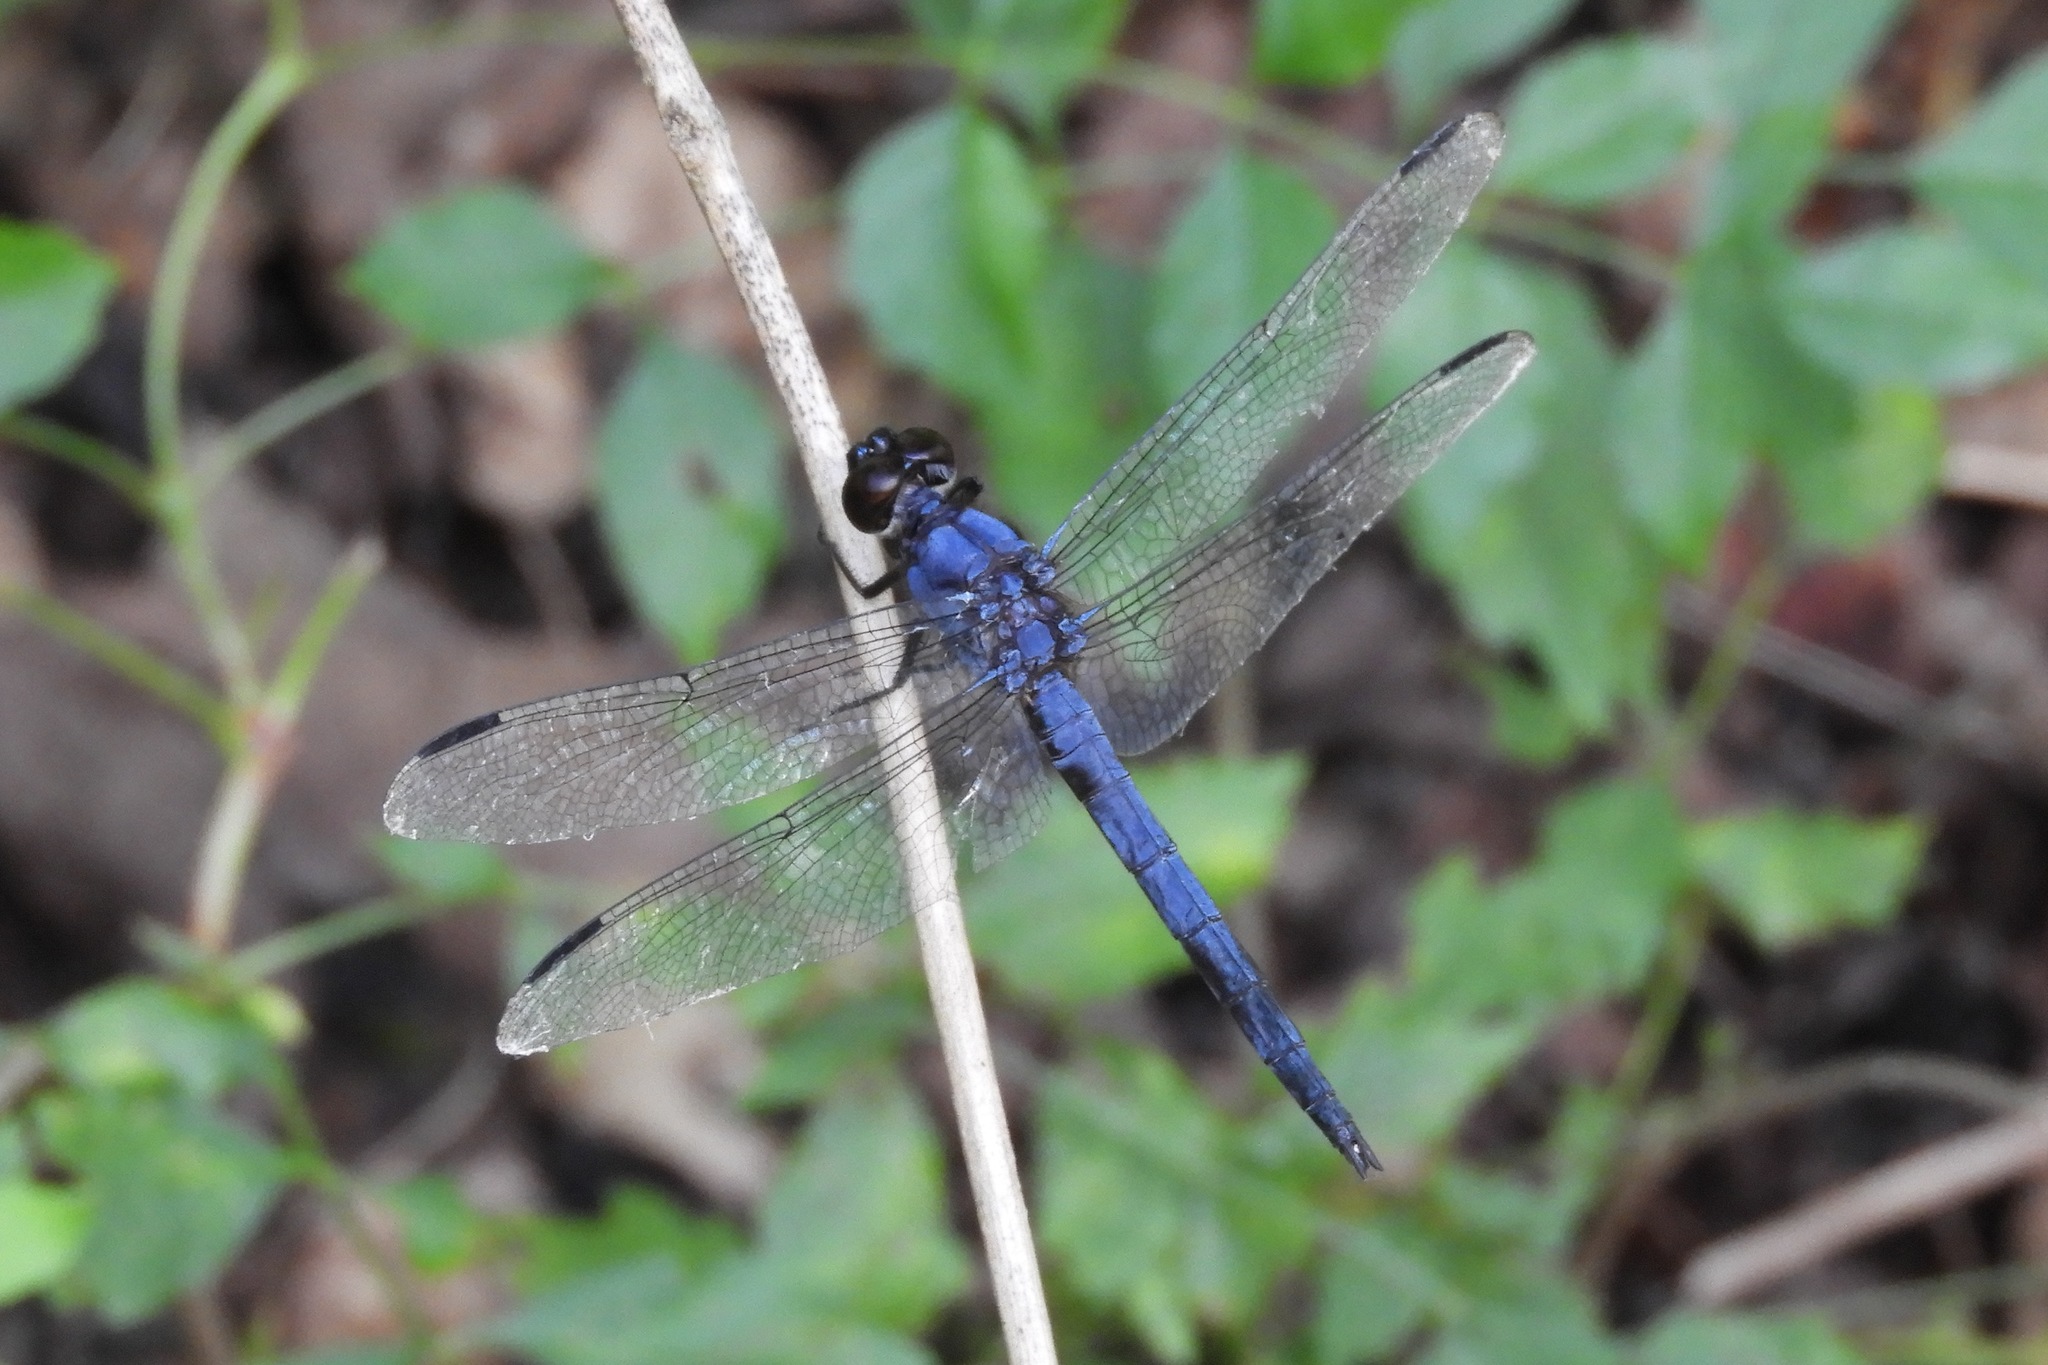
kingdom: Animalia
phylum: Arthropoda
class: Insecta
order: Odonata
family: Libellulidae
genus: Libellula
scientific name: Libellula incesta
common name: Slaty skimmer
